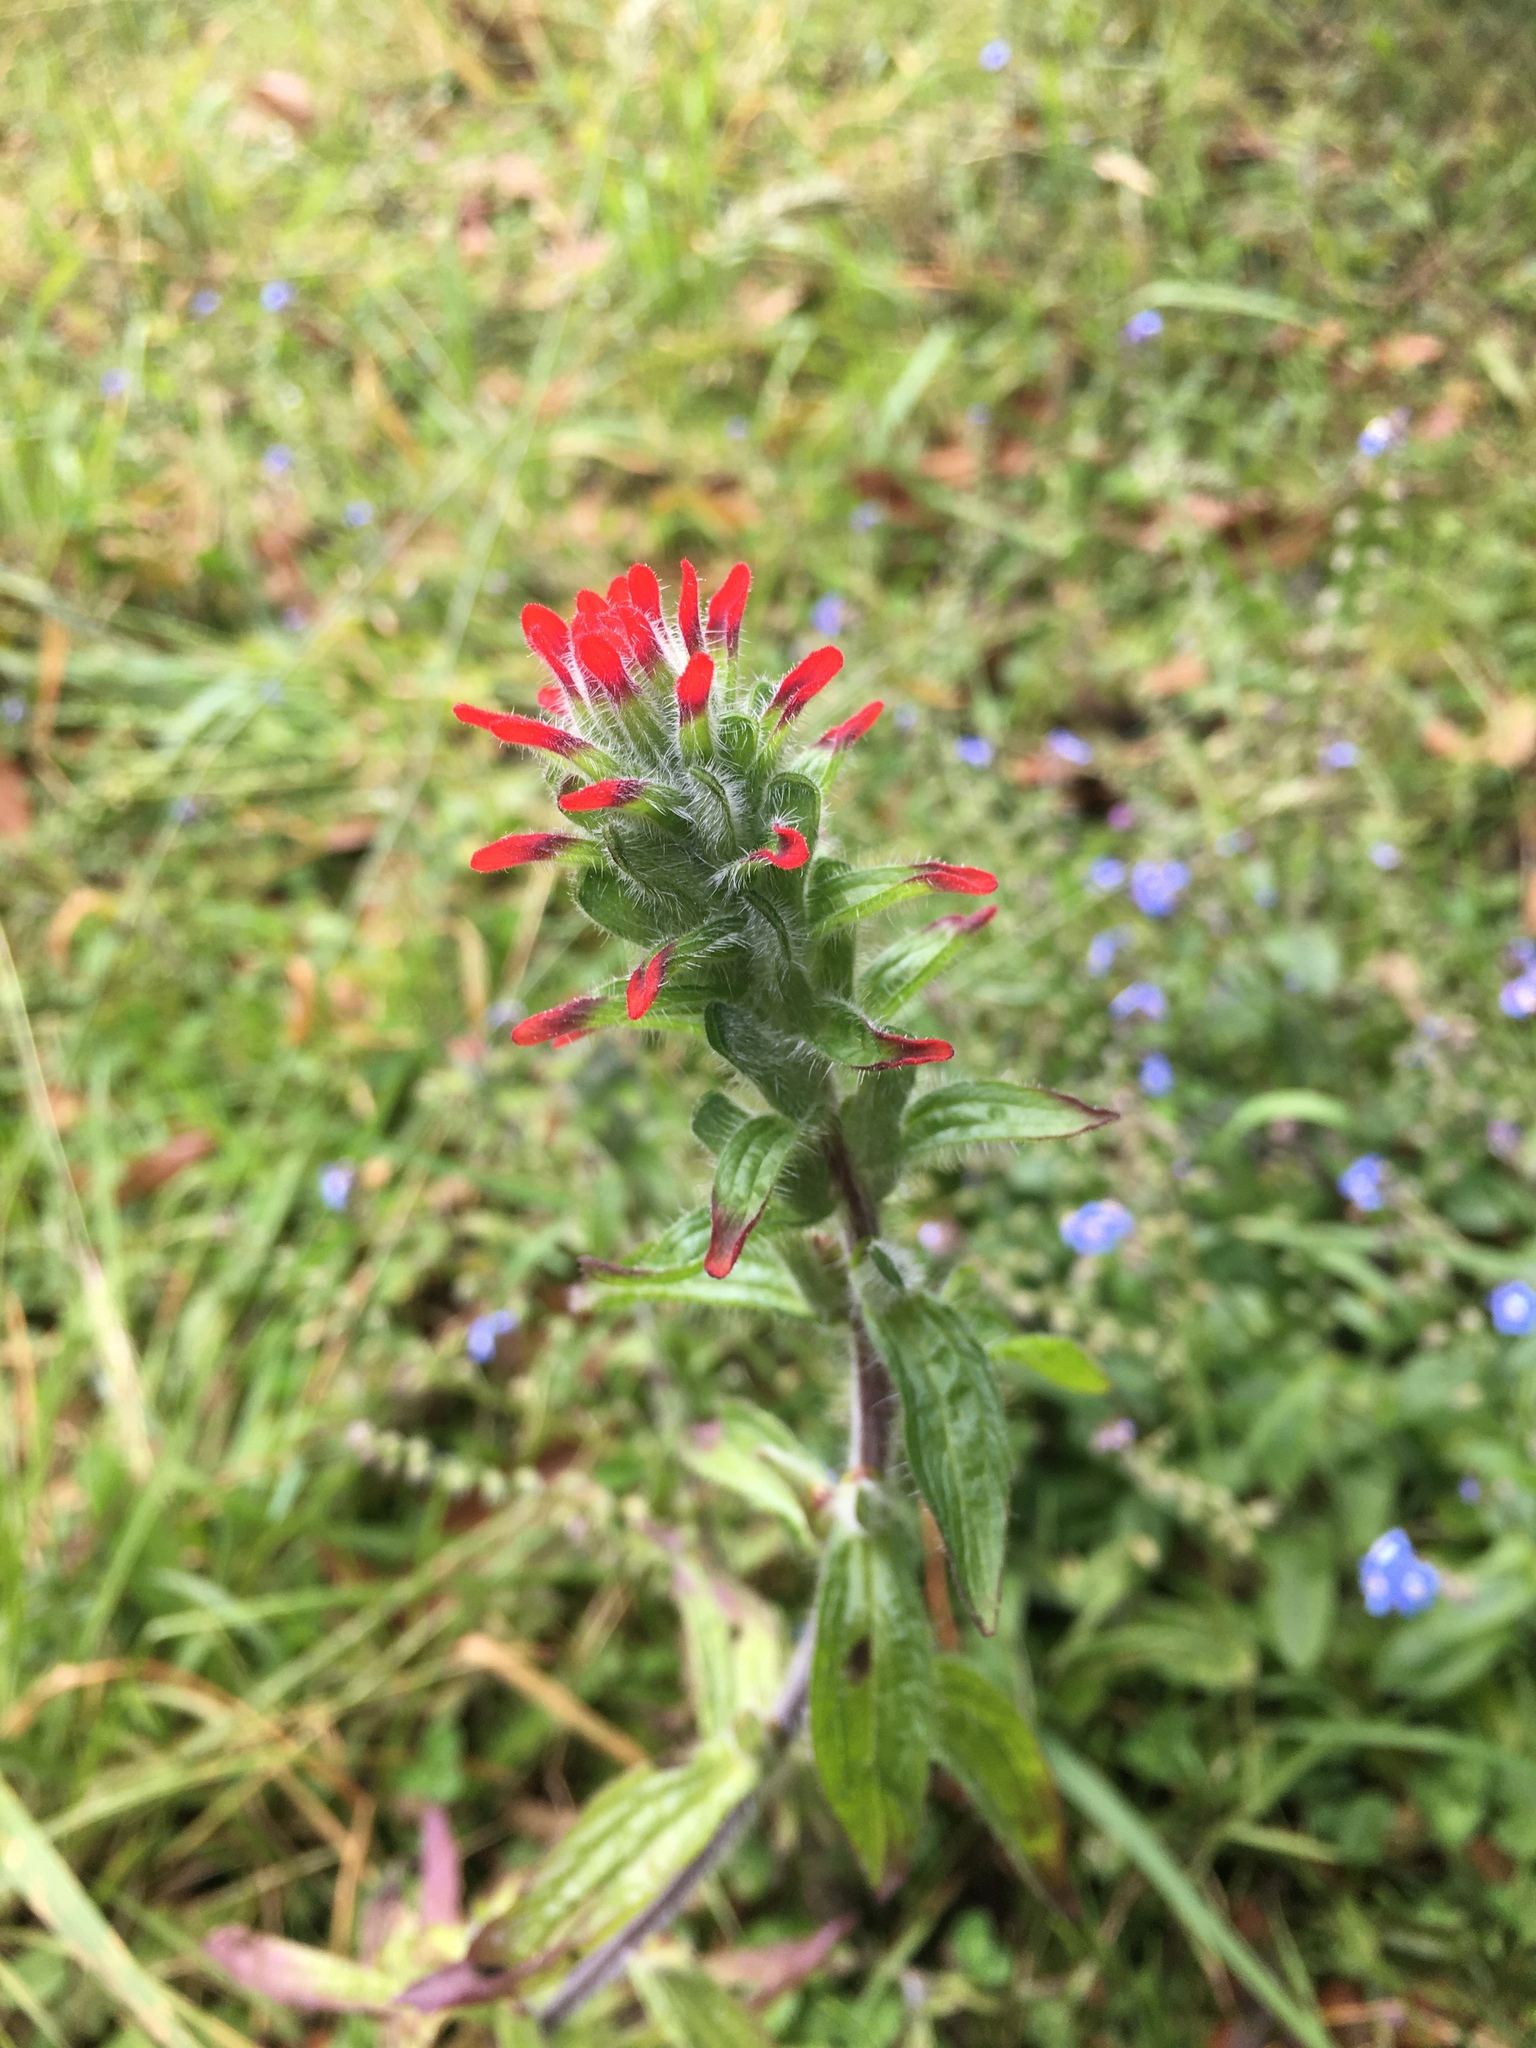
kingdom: Plantae
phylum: Tracheophyta
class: Magnoliopsida
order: Lamiales
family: Orobanchaceae
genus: Castilleja
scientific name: Castilleja arvensis
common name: Indian paintbrush
